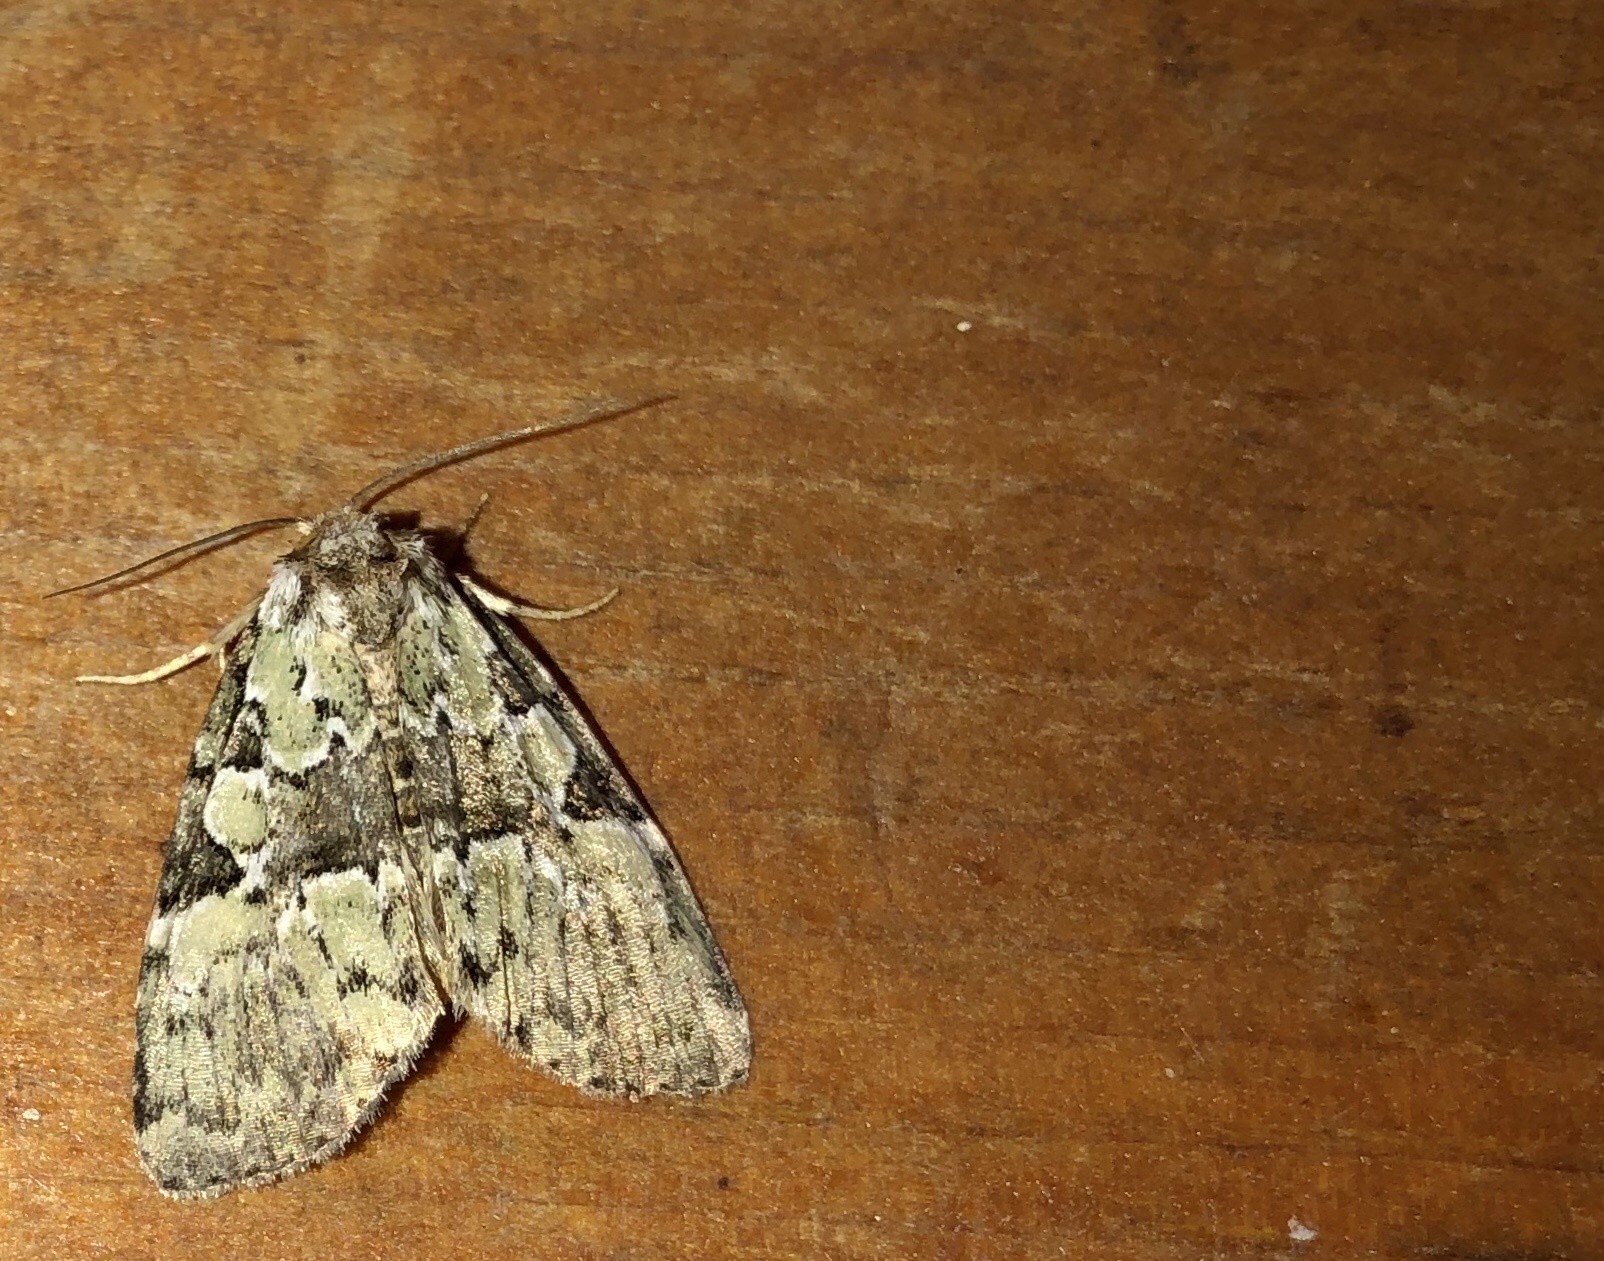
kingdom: Animalia
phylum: Arthropoda
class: Insecta
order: Lepidoptera
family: Noctuidae
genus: Leuconycta
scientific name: Leuconycta lepidula
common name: Marbled-green leuconycta moth
